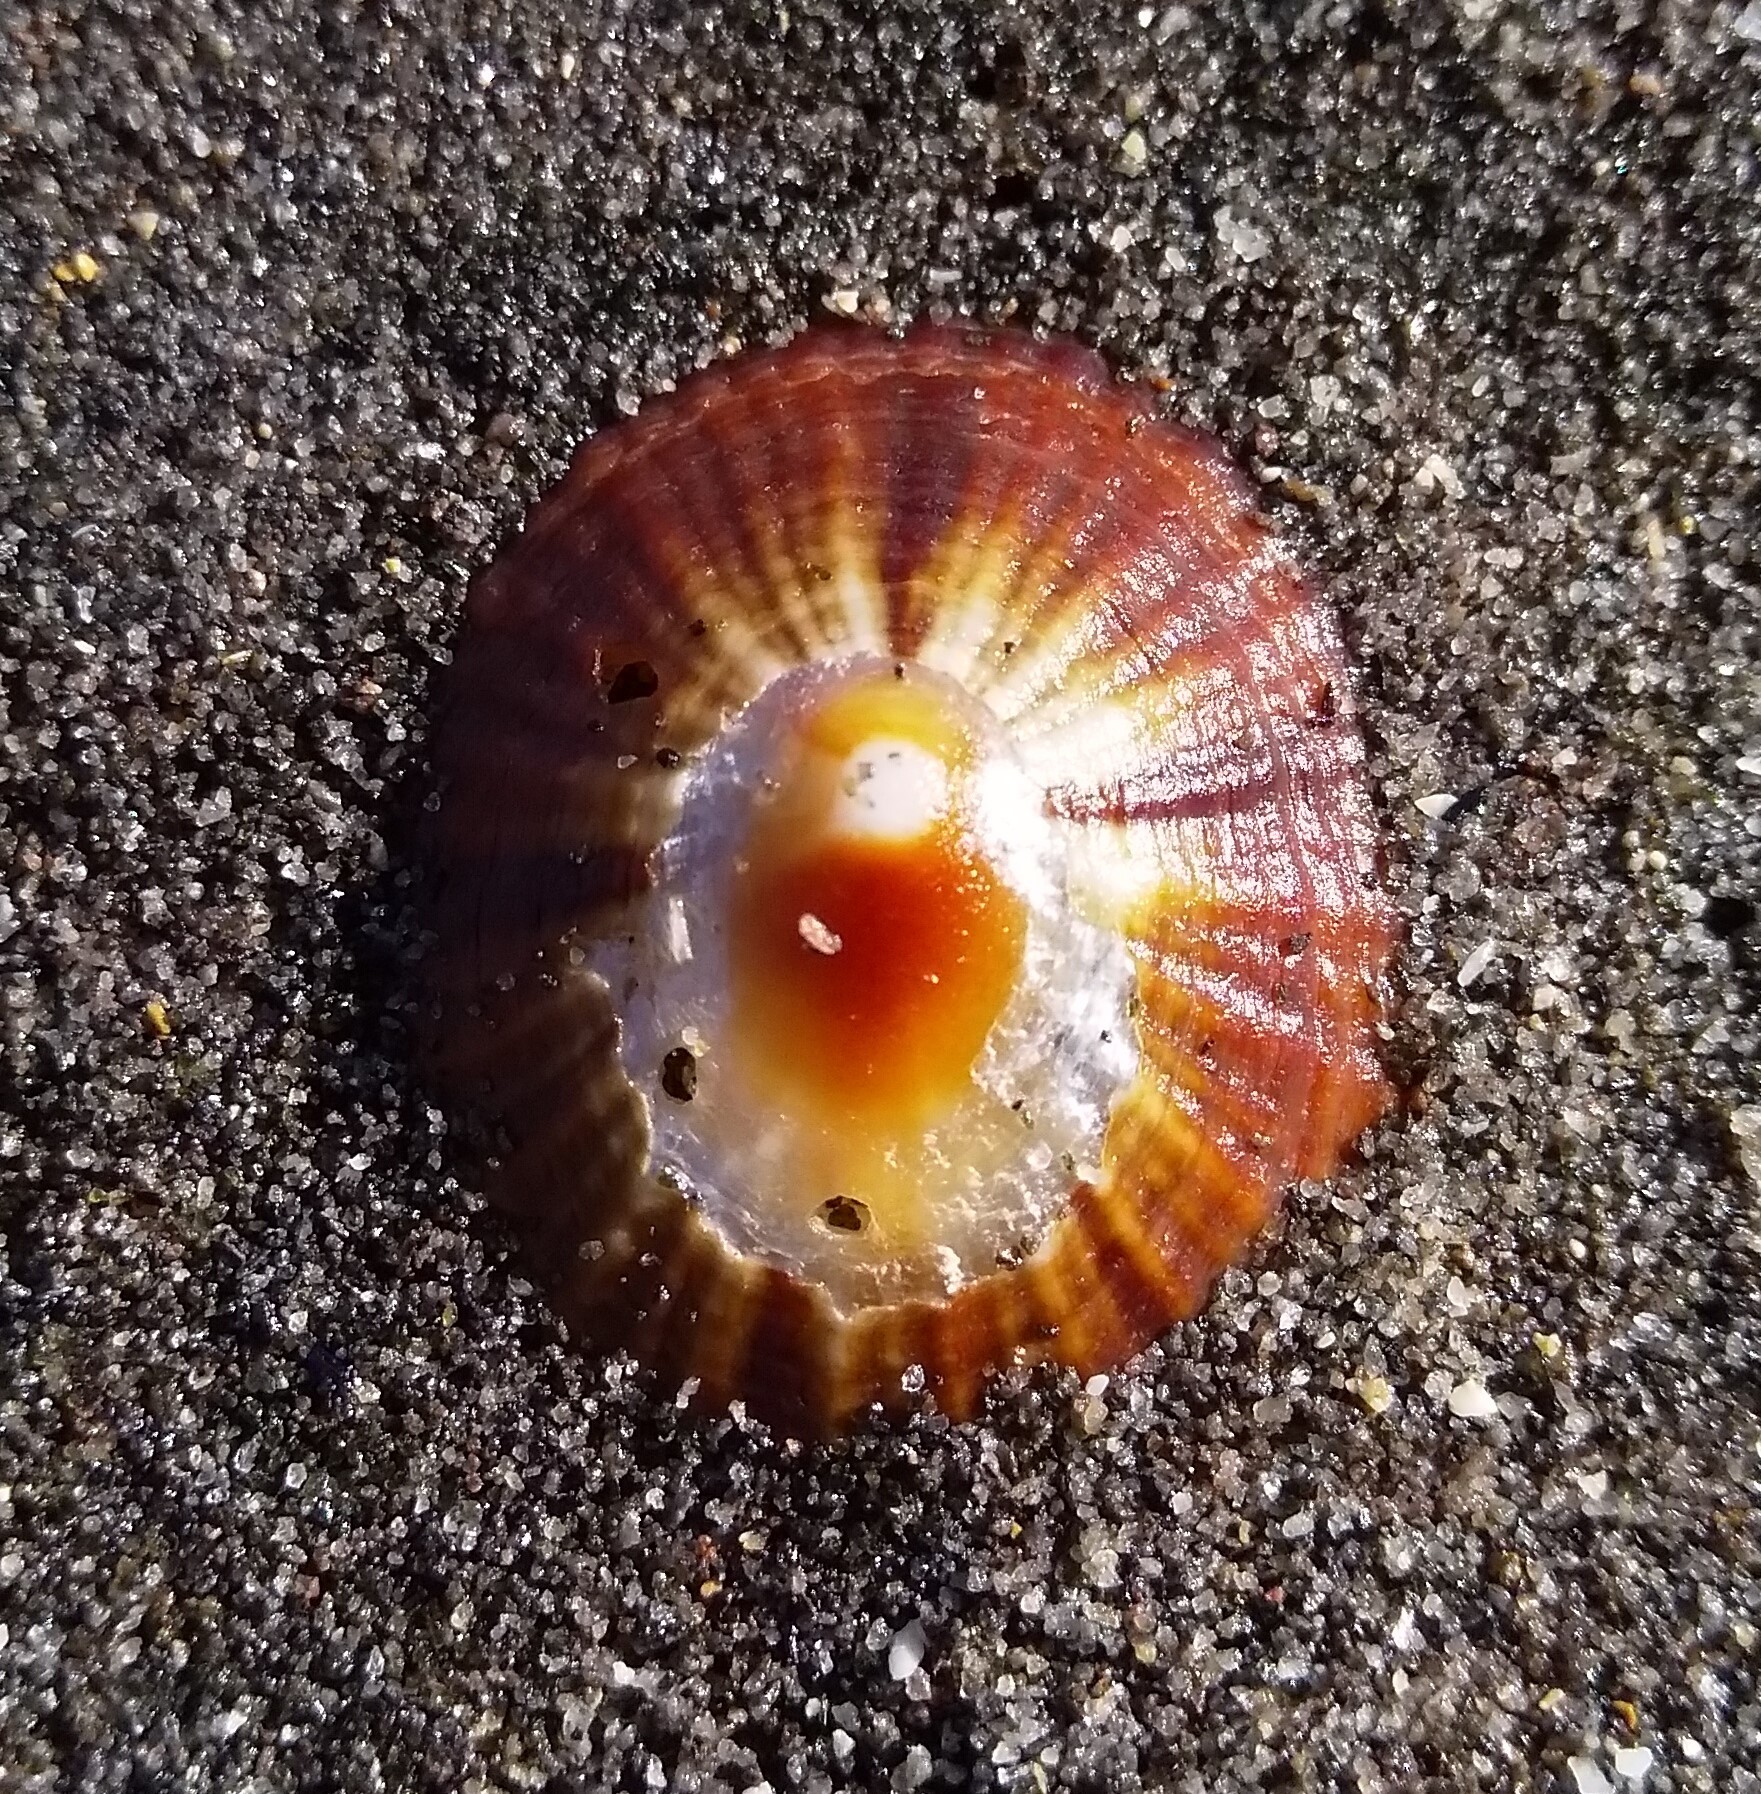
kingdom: Animalia
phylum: Mollusca
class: Gastropoda
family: Nacellidae
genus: Cellana
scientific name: Cellana stellifera
